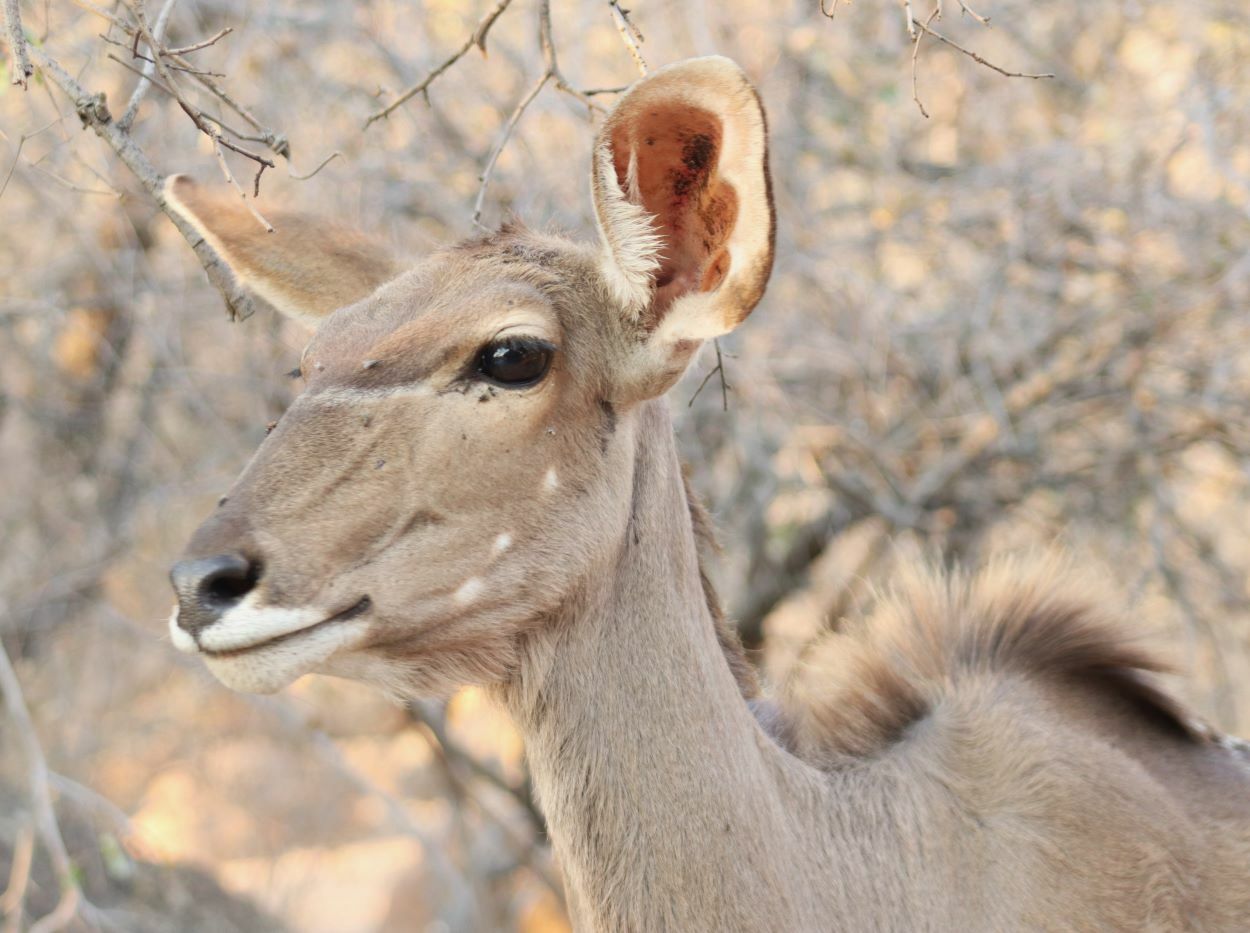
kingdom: Animalia
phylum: Chordata
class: Mammalia
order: Artiodactyla
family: Bovidae
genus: Tragelaphus
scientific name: Tragelaphus strepsiceros
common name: Greater kudu
